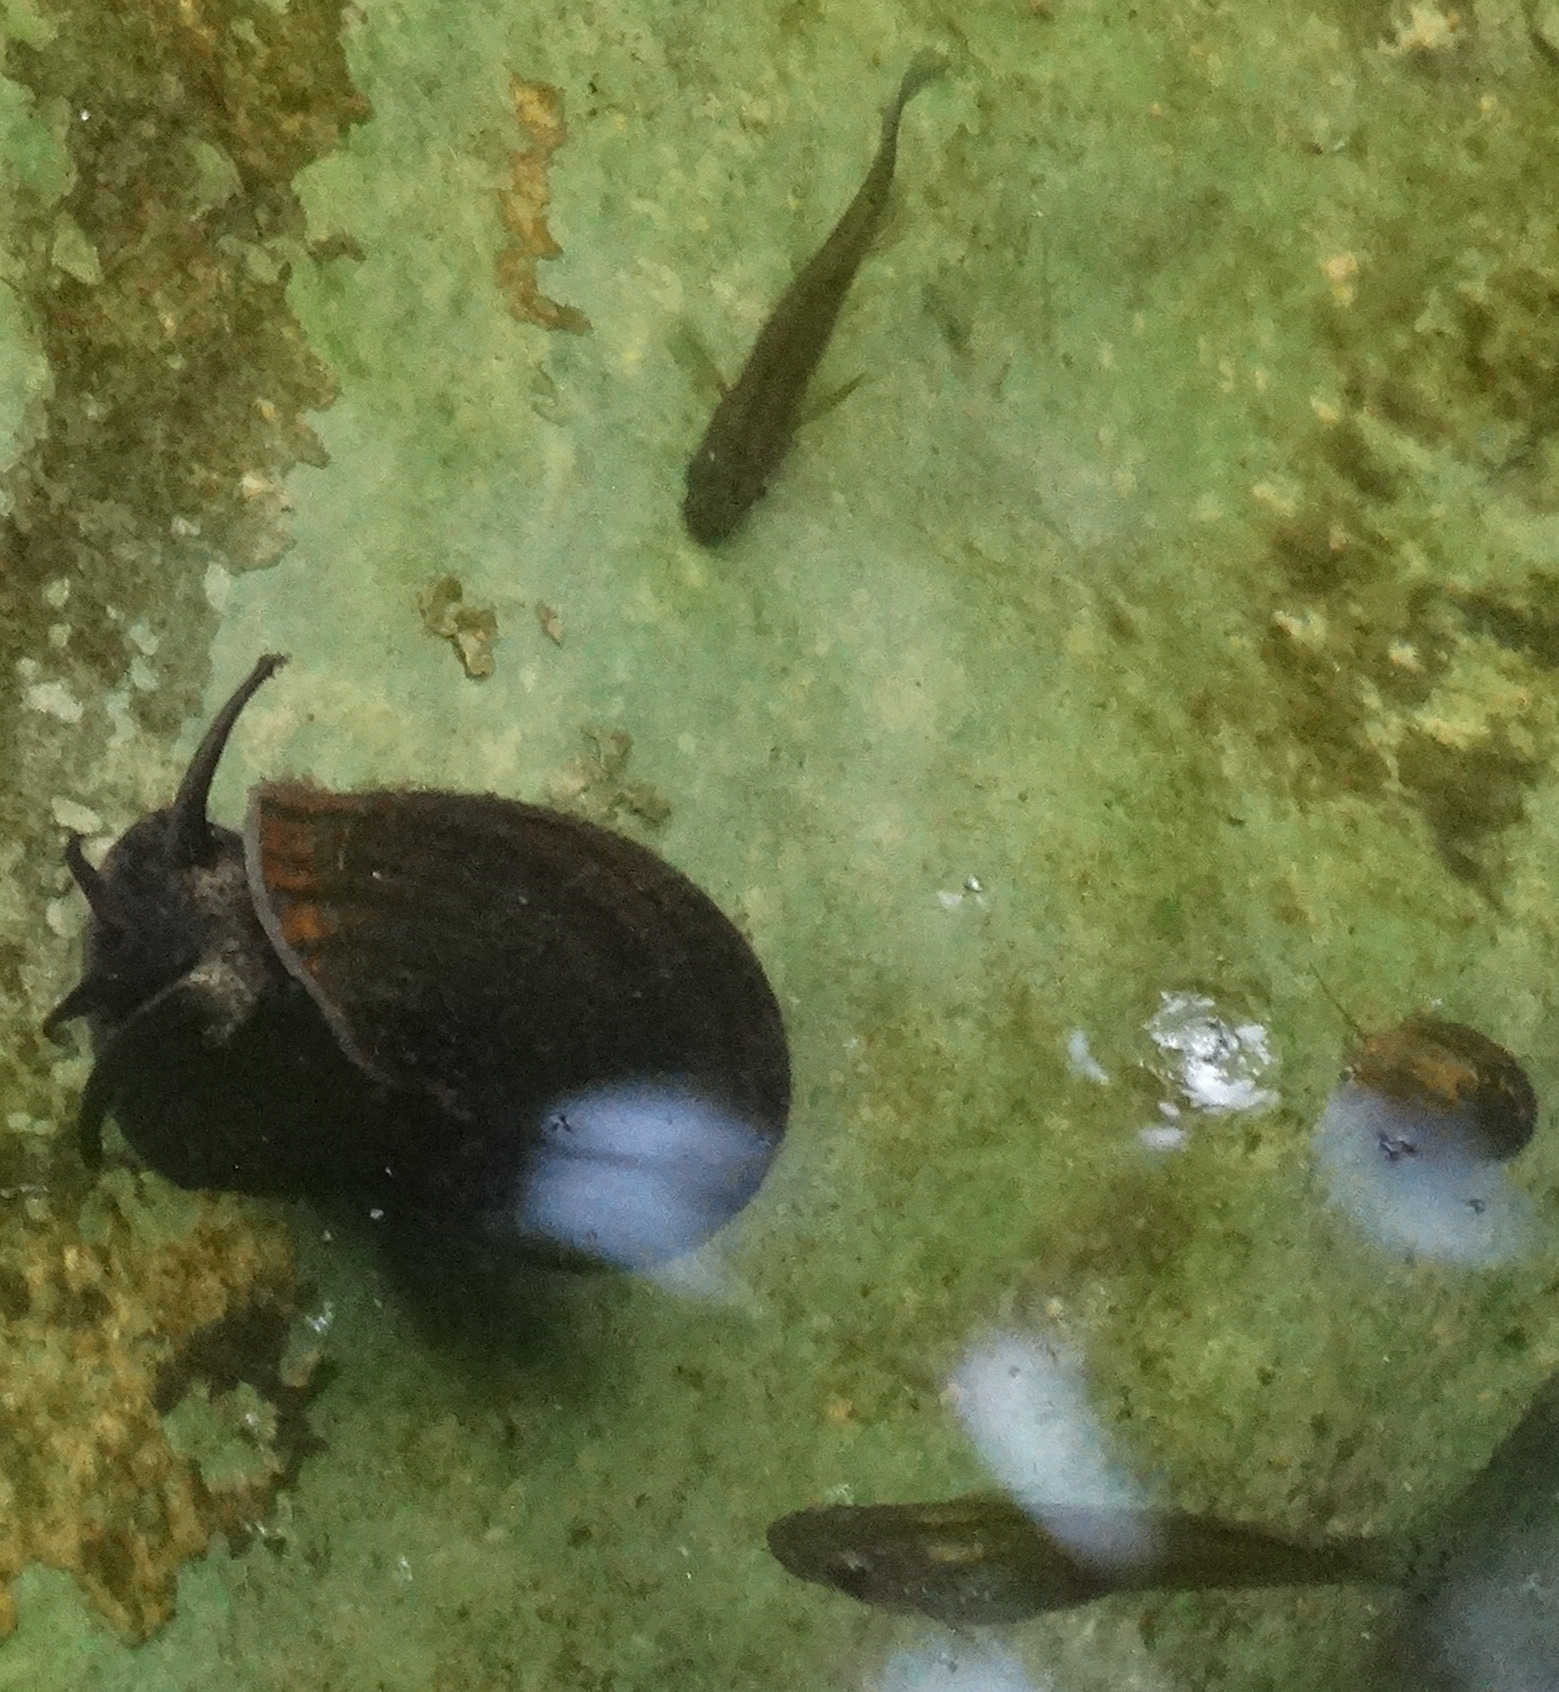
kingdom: Animalia
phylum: Mollusca
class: Gastropoda
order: Architaenioglossa
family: Ampullariidae
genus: Pomacea
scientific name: Pomacea canaliculata
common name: Channeled applesnail
